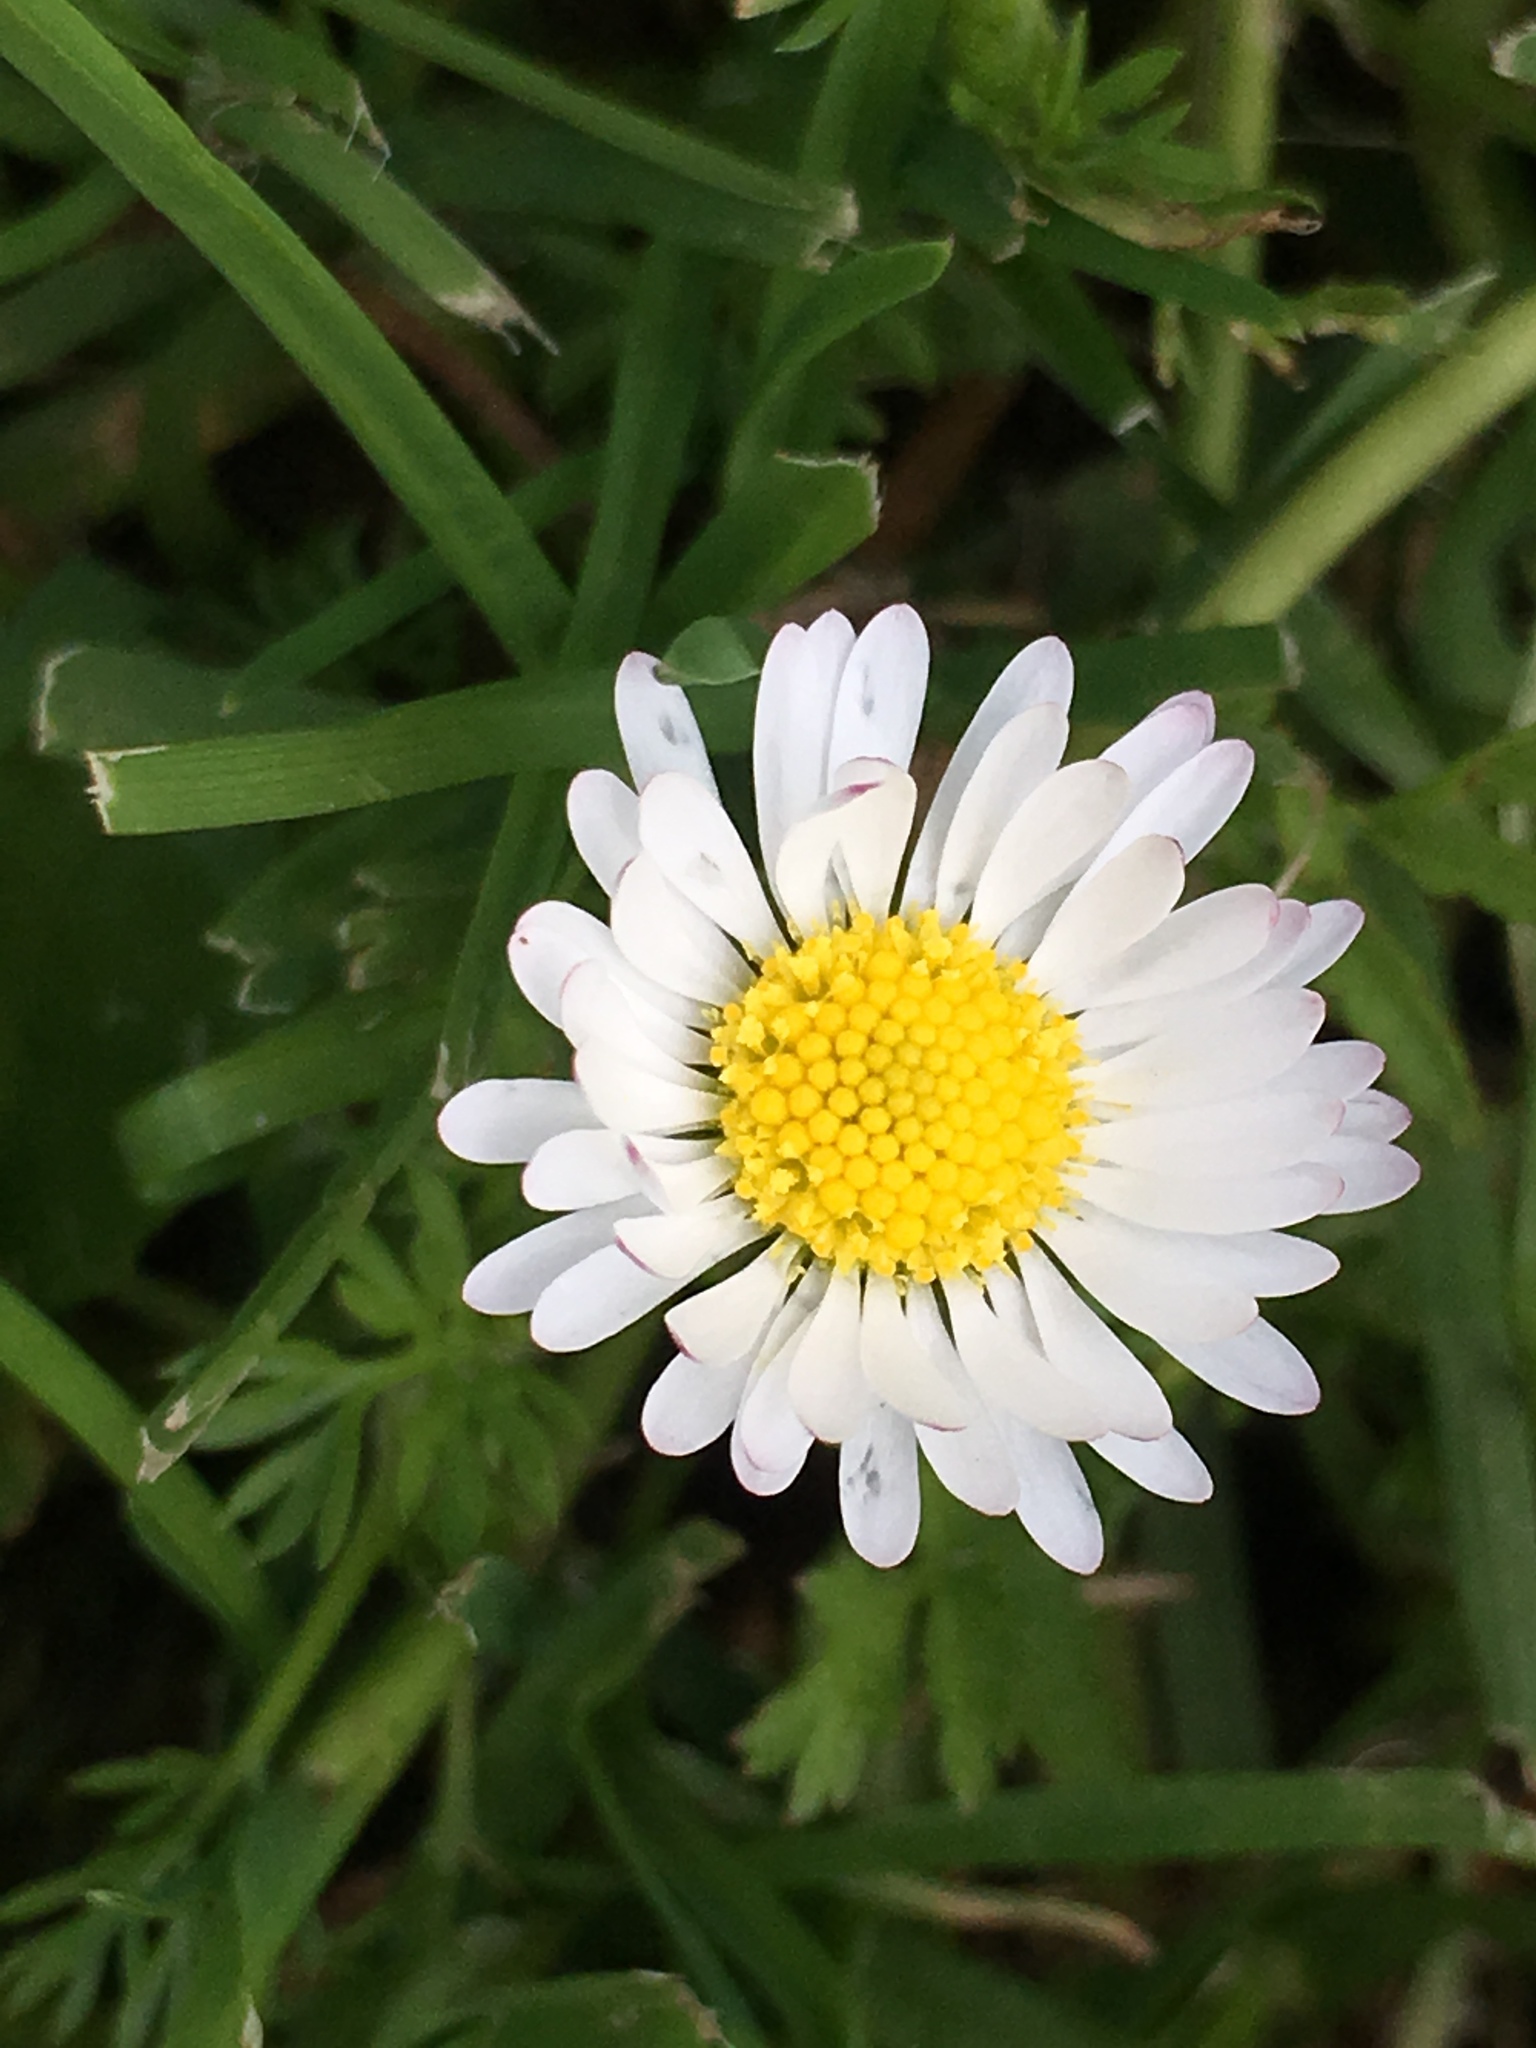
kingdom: Plantae
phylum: Tracheophyta
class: Magnoliopsida
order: Asterales
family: Asteraceae
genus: Bellis
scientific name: Bellis perennis
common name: Lawndaisy
